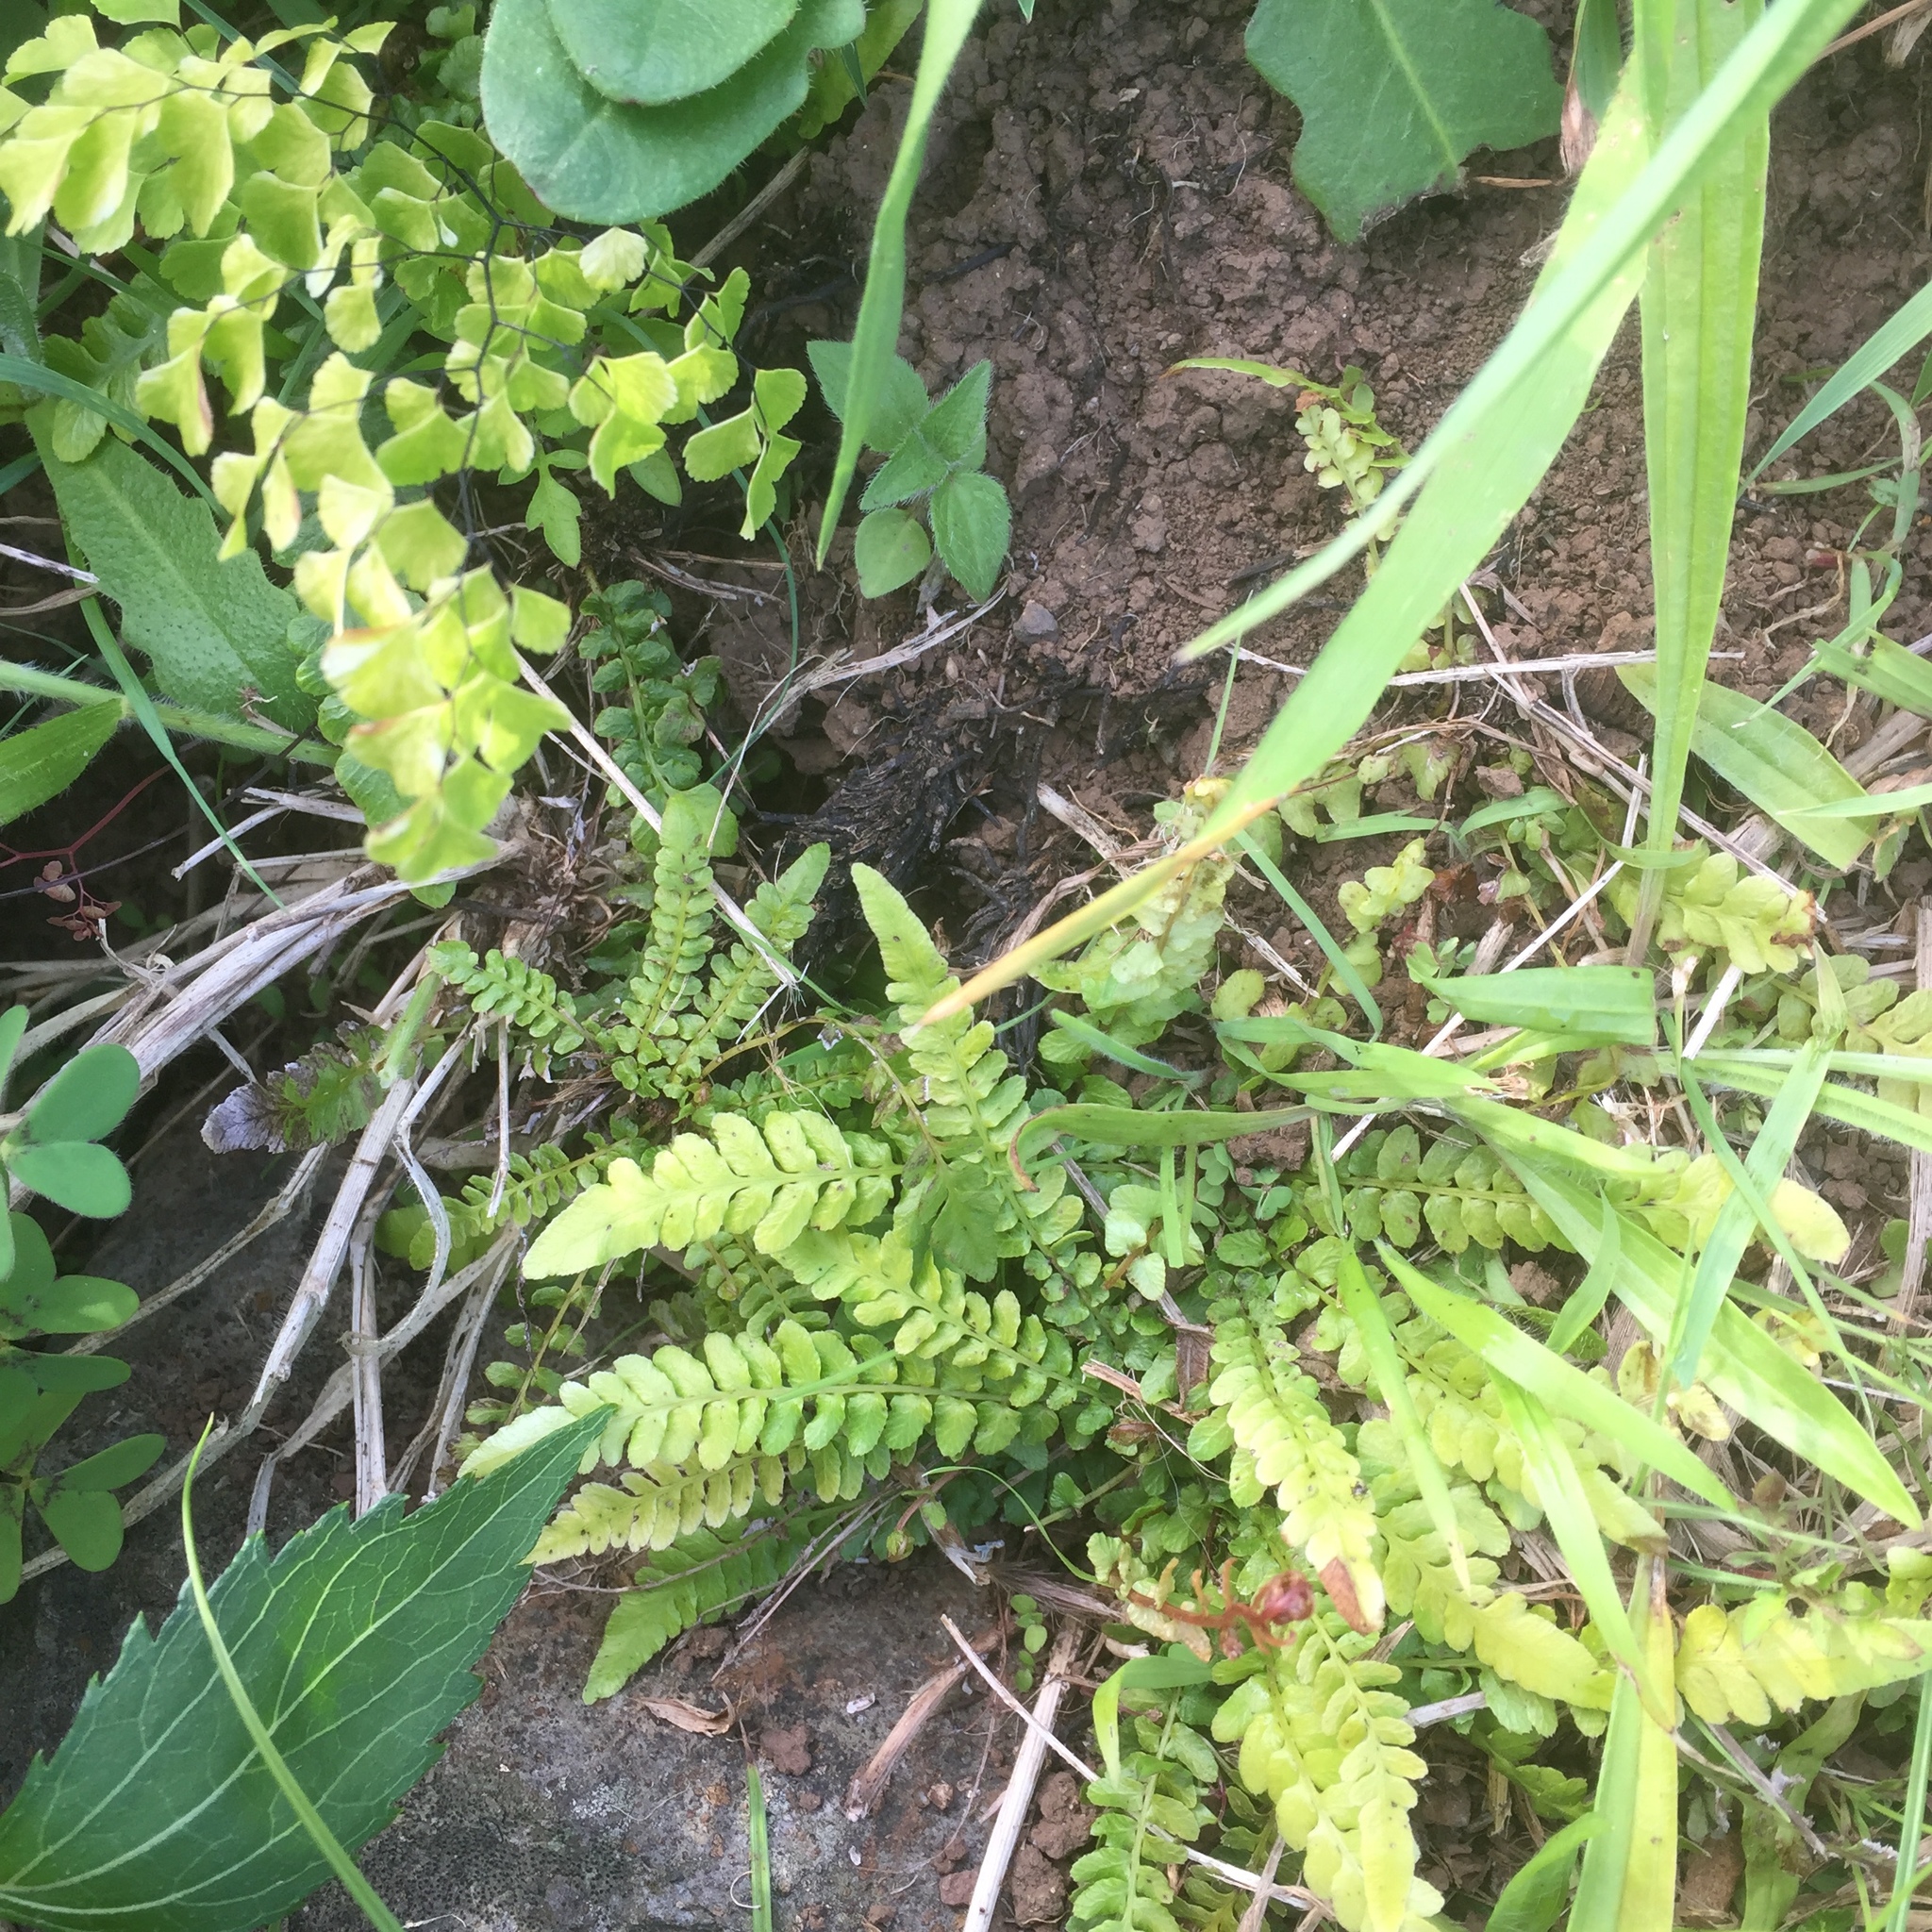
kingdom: Plantae
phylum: Tracheophyta
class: Polypodiopsida
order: Polypodiales
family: Blechnaceae
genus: Doodia
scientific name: Doodia caudata
